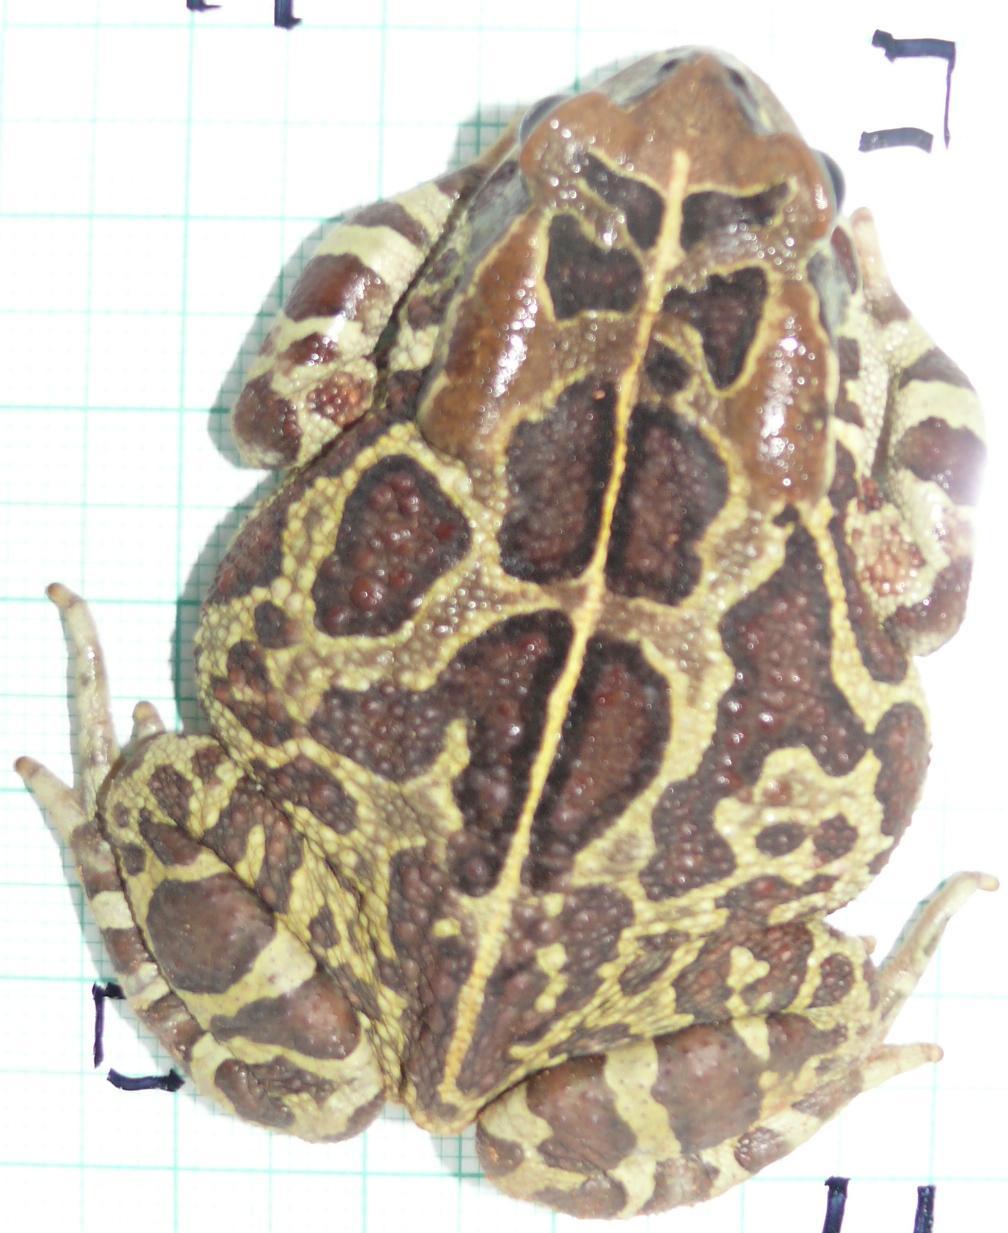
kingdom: Animalia
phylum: Chordata
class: Amphibia
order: Anura
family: Bufonidae
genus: Sclerophrys
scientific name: Sclerophrys pantherina
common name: Panther toad
